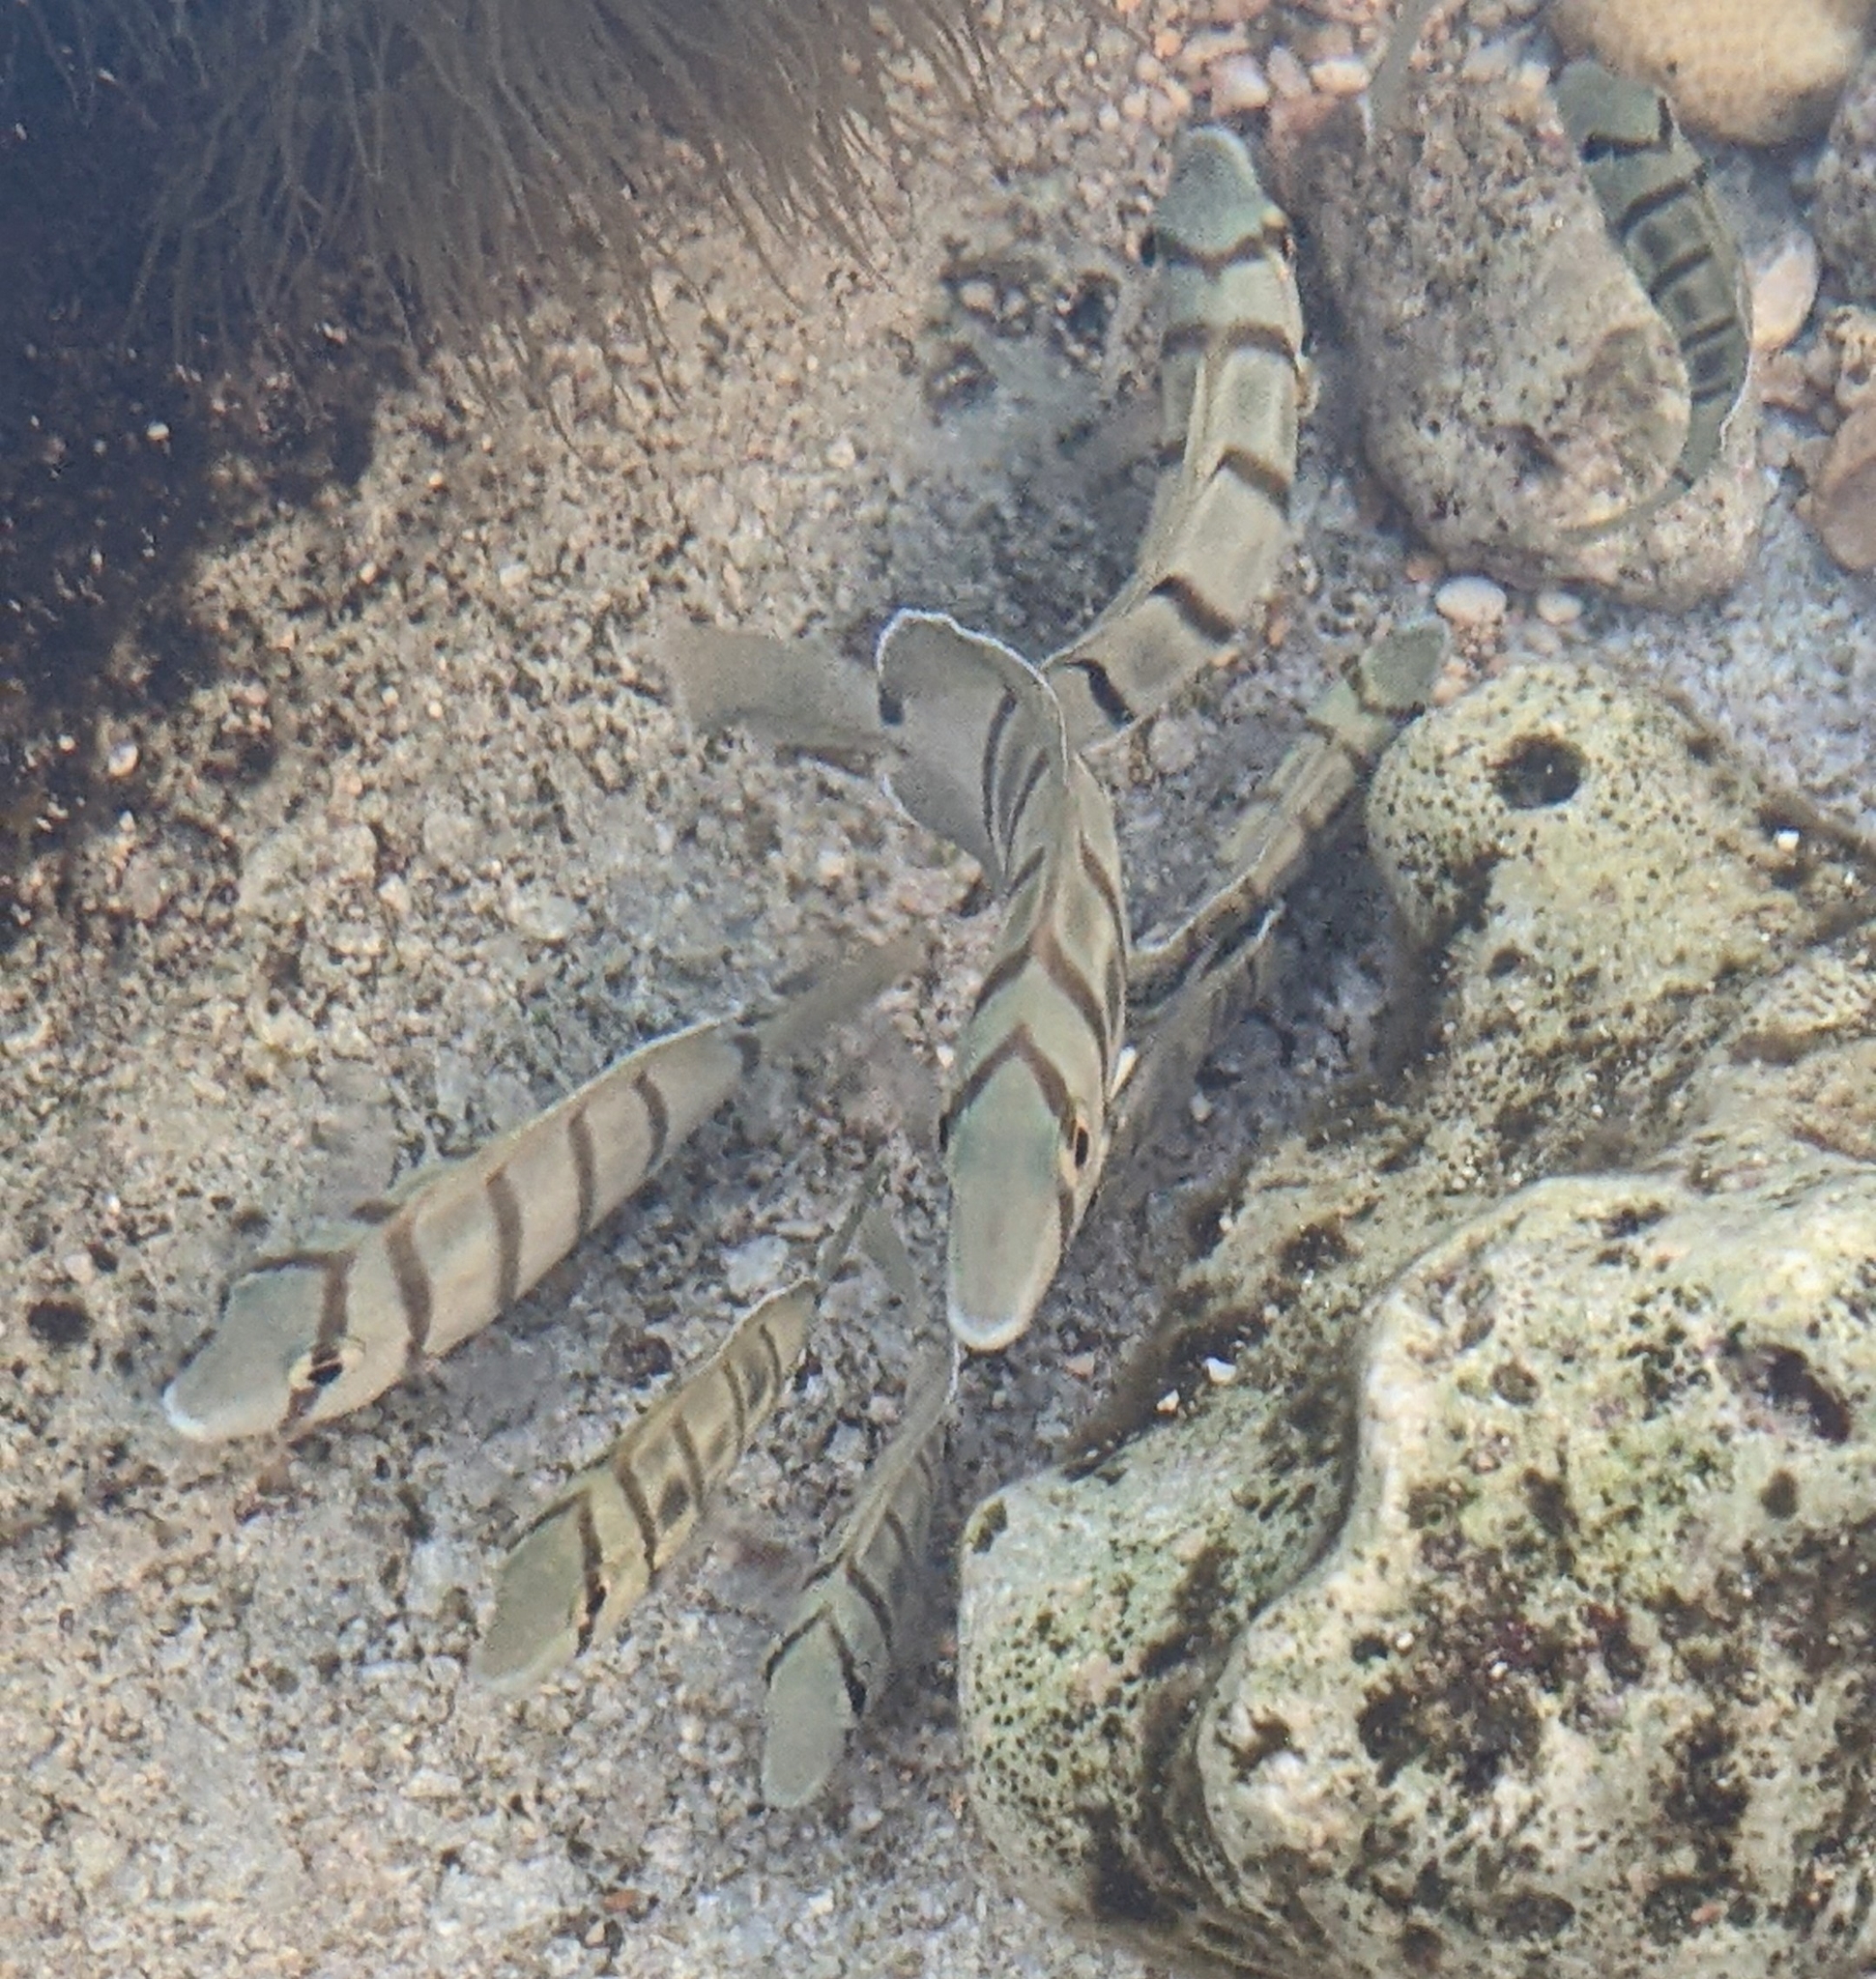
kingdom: Animalia
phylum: Chordata
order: Perciformes
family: Acanthuridae
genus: Acanthurus
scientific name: Acanthurus triostegus
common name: Convict surgeonfish
